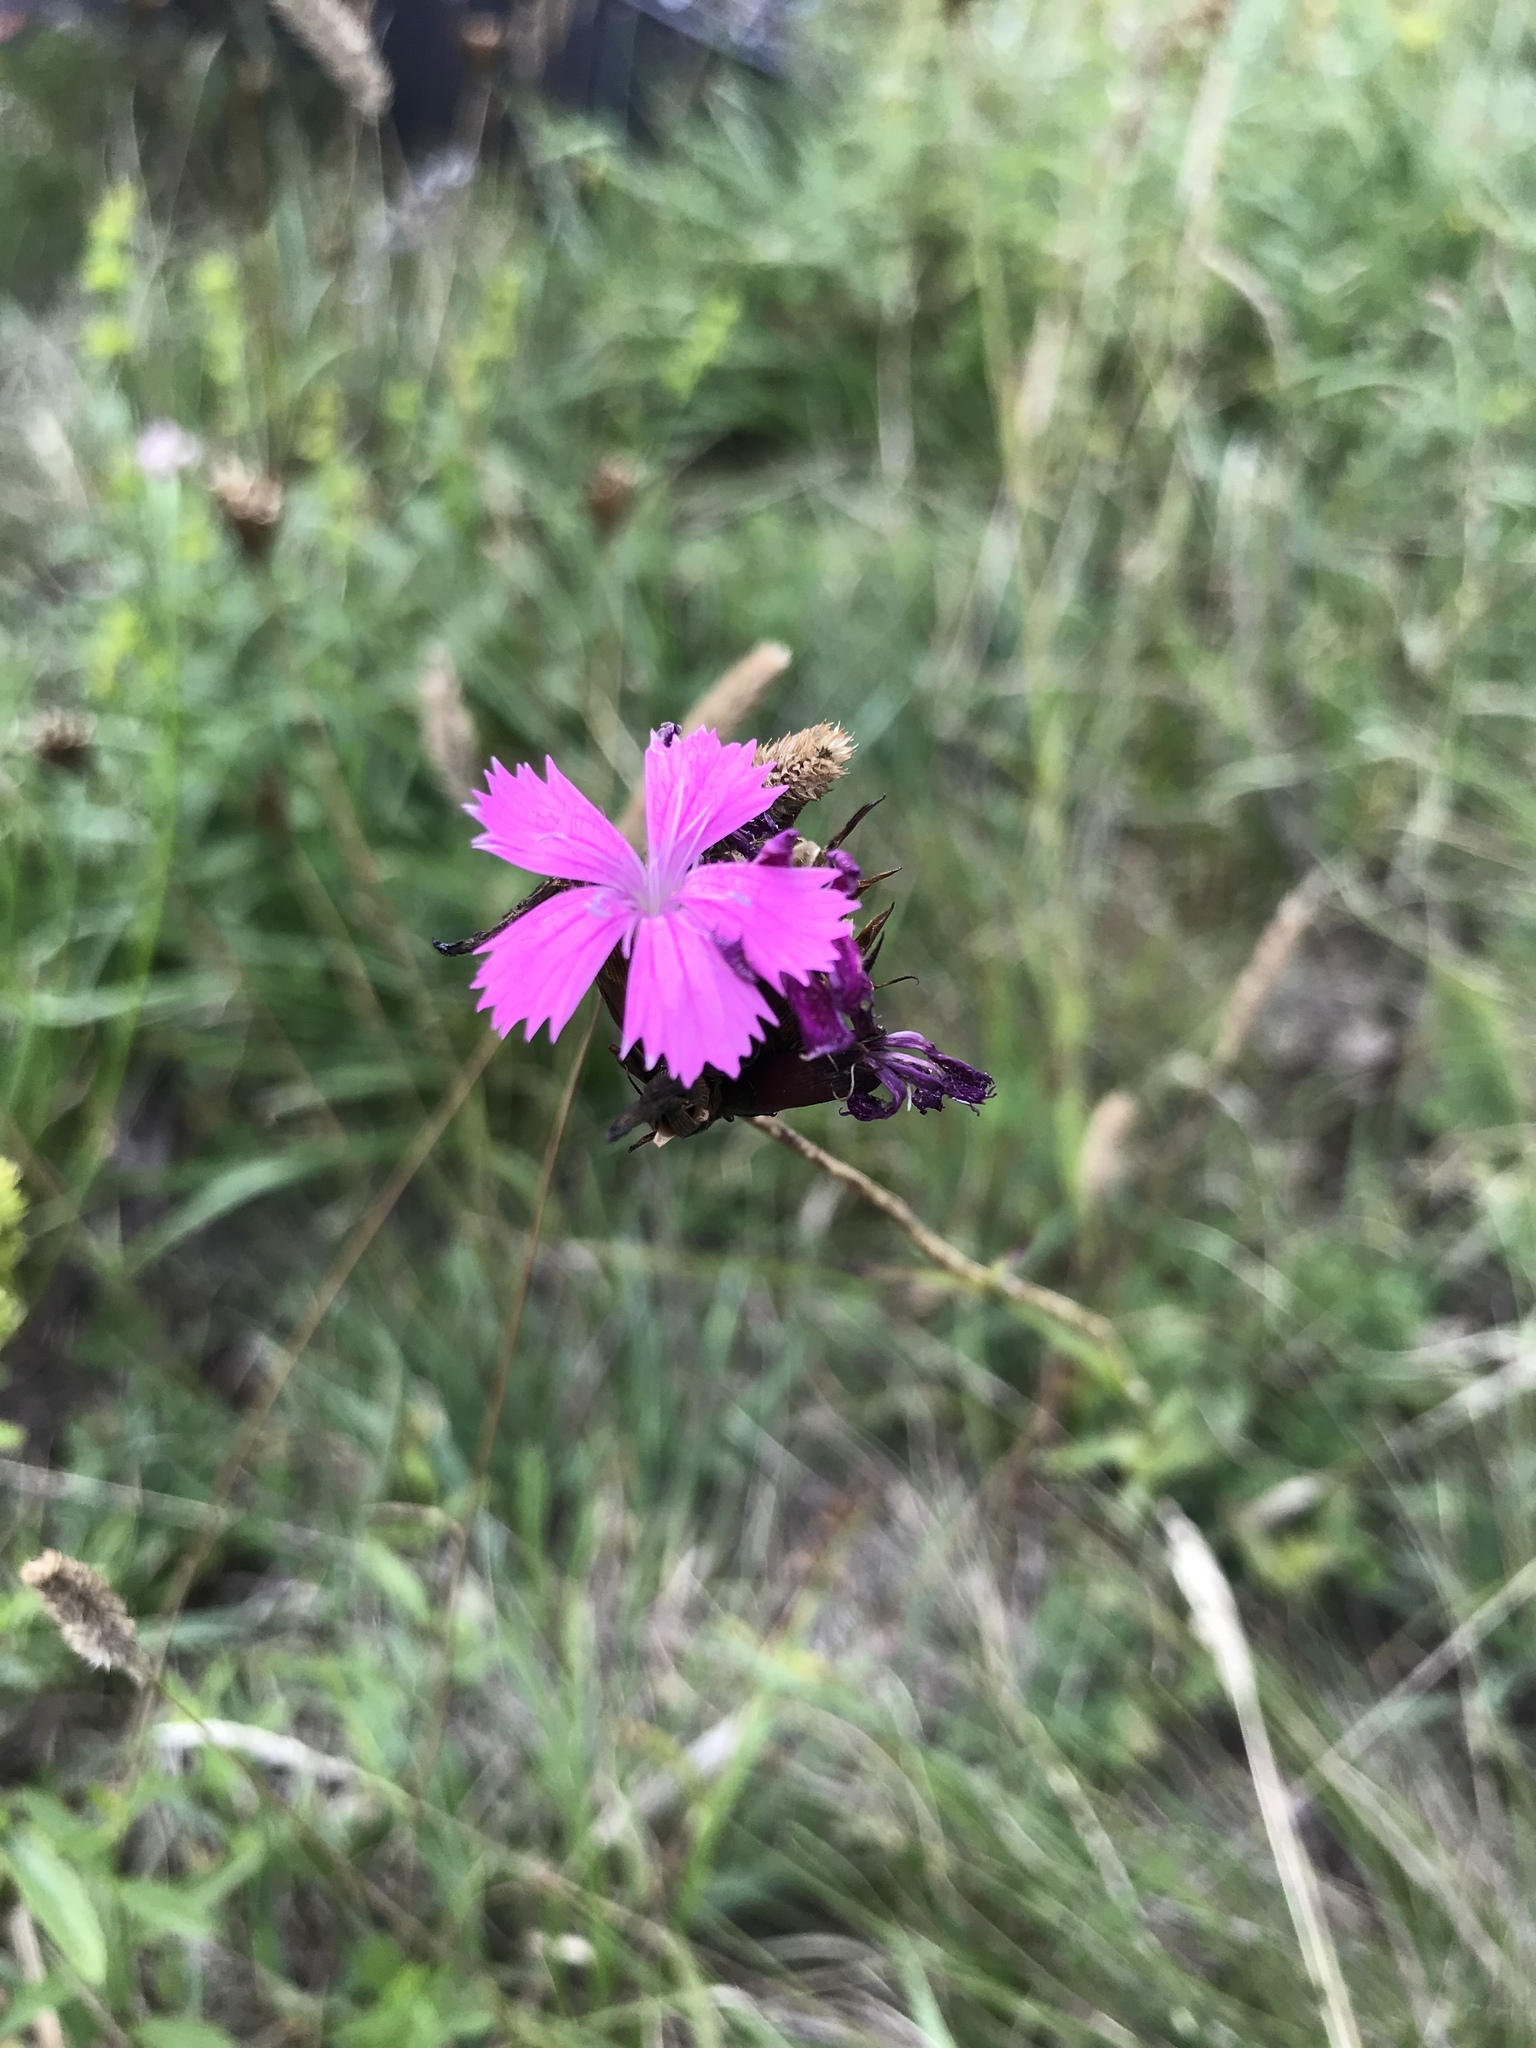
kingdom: Plantae
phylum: Tracheophyta
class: Magnoliopsida
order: Caryophyllales
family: Caryophyllaceae
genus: Dianthus
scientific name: Dianthus carthusianorum
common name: Carthusian pink
